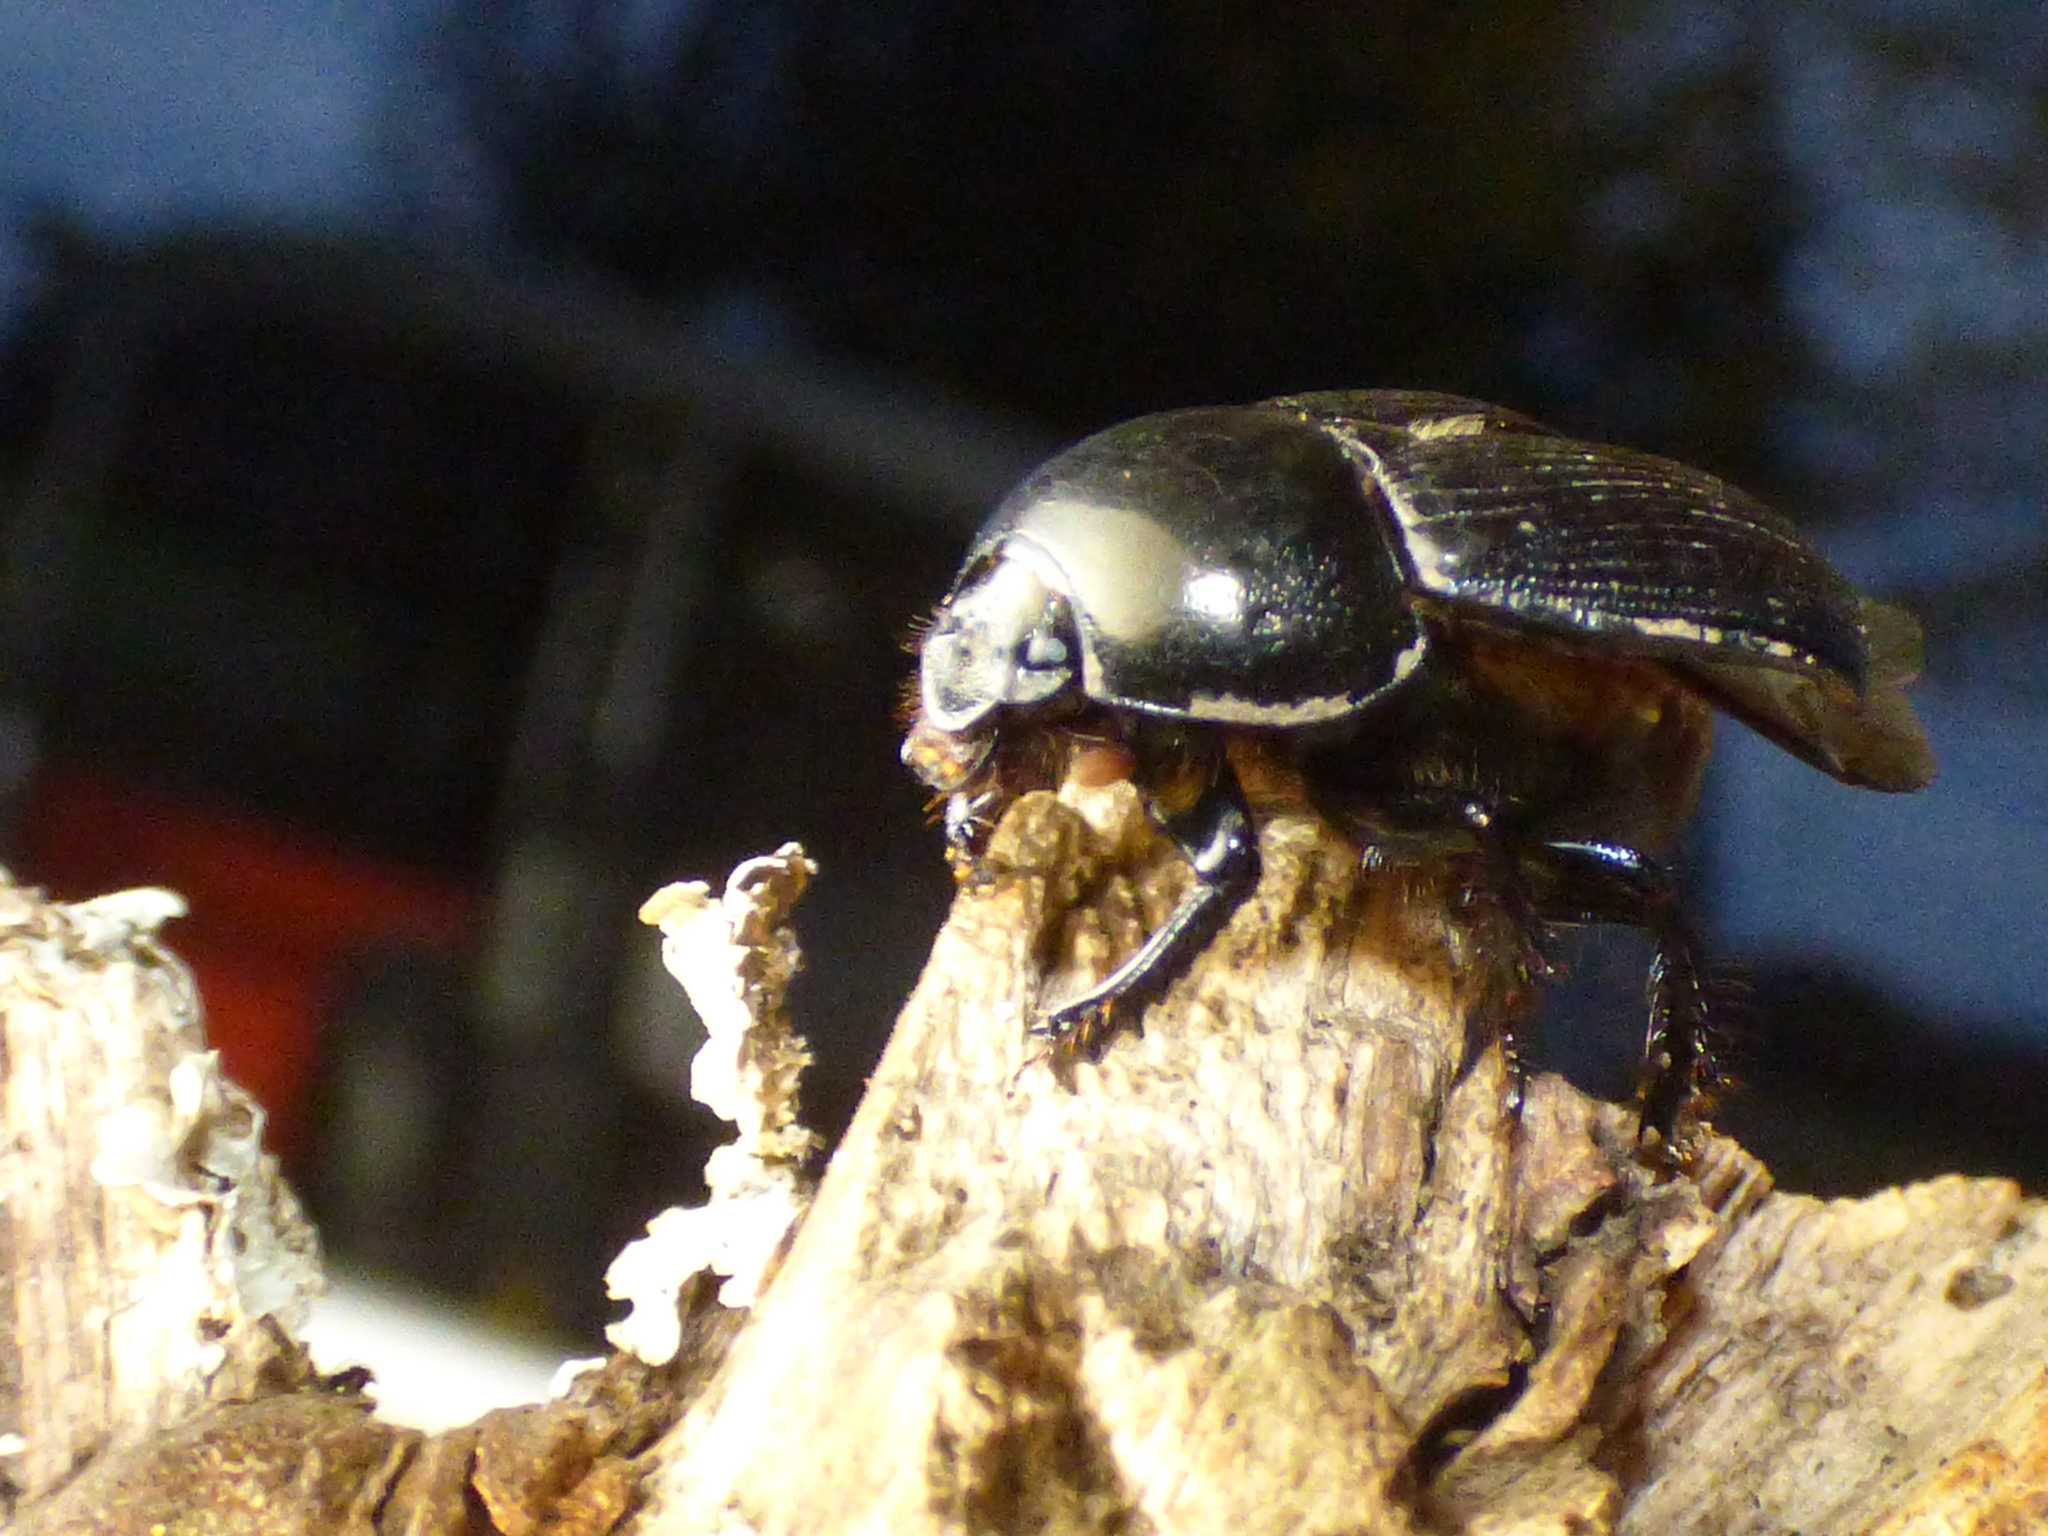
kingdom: Animalia
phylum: Arthropoda
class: Insecta
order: Coleoptera
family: Geotrupidae
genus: Cnemotrupes
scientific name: Cnemotrupes semiopacus
